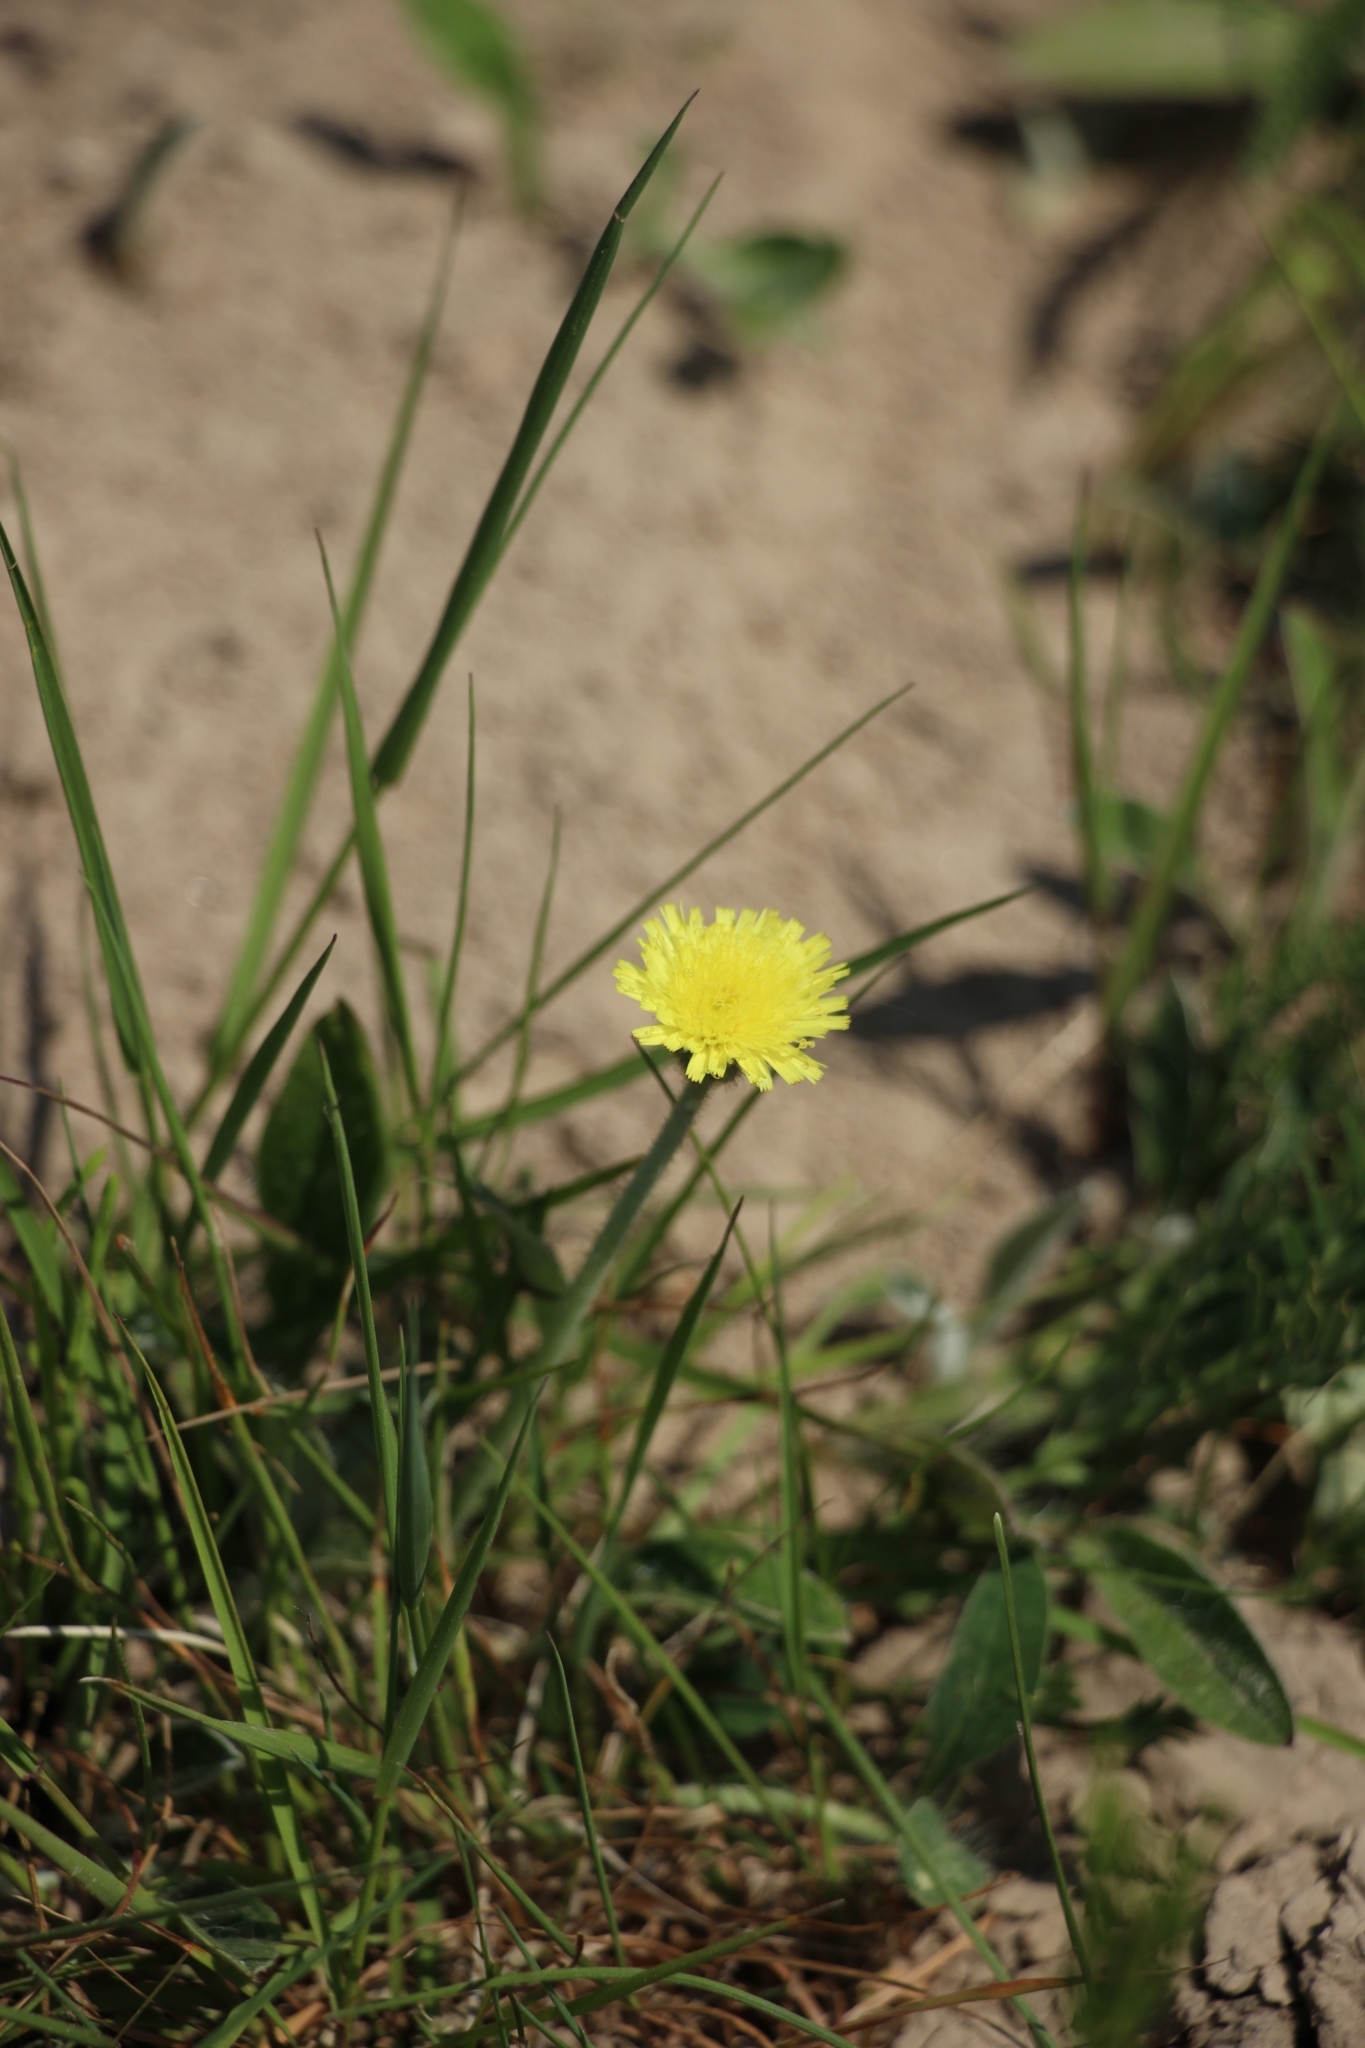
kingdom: Plantae
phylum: Tracheophyta
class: Magnoliopsida
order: Asterales
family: Asteraceae
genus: Pilosella
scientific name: Pilosella officinarum
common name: Mouse-ear hawkweed
